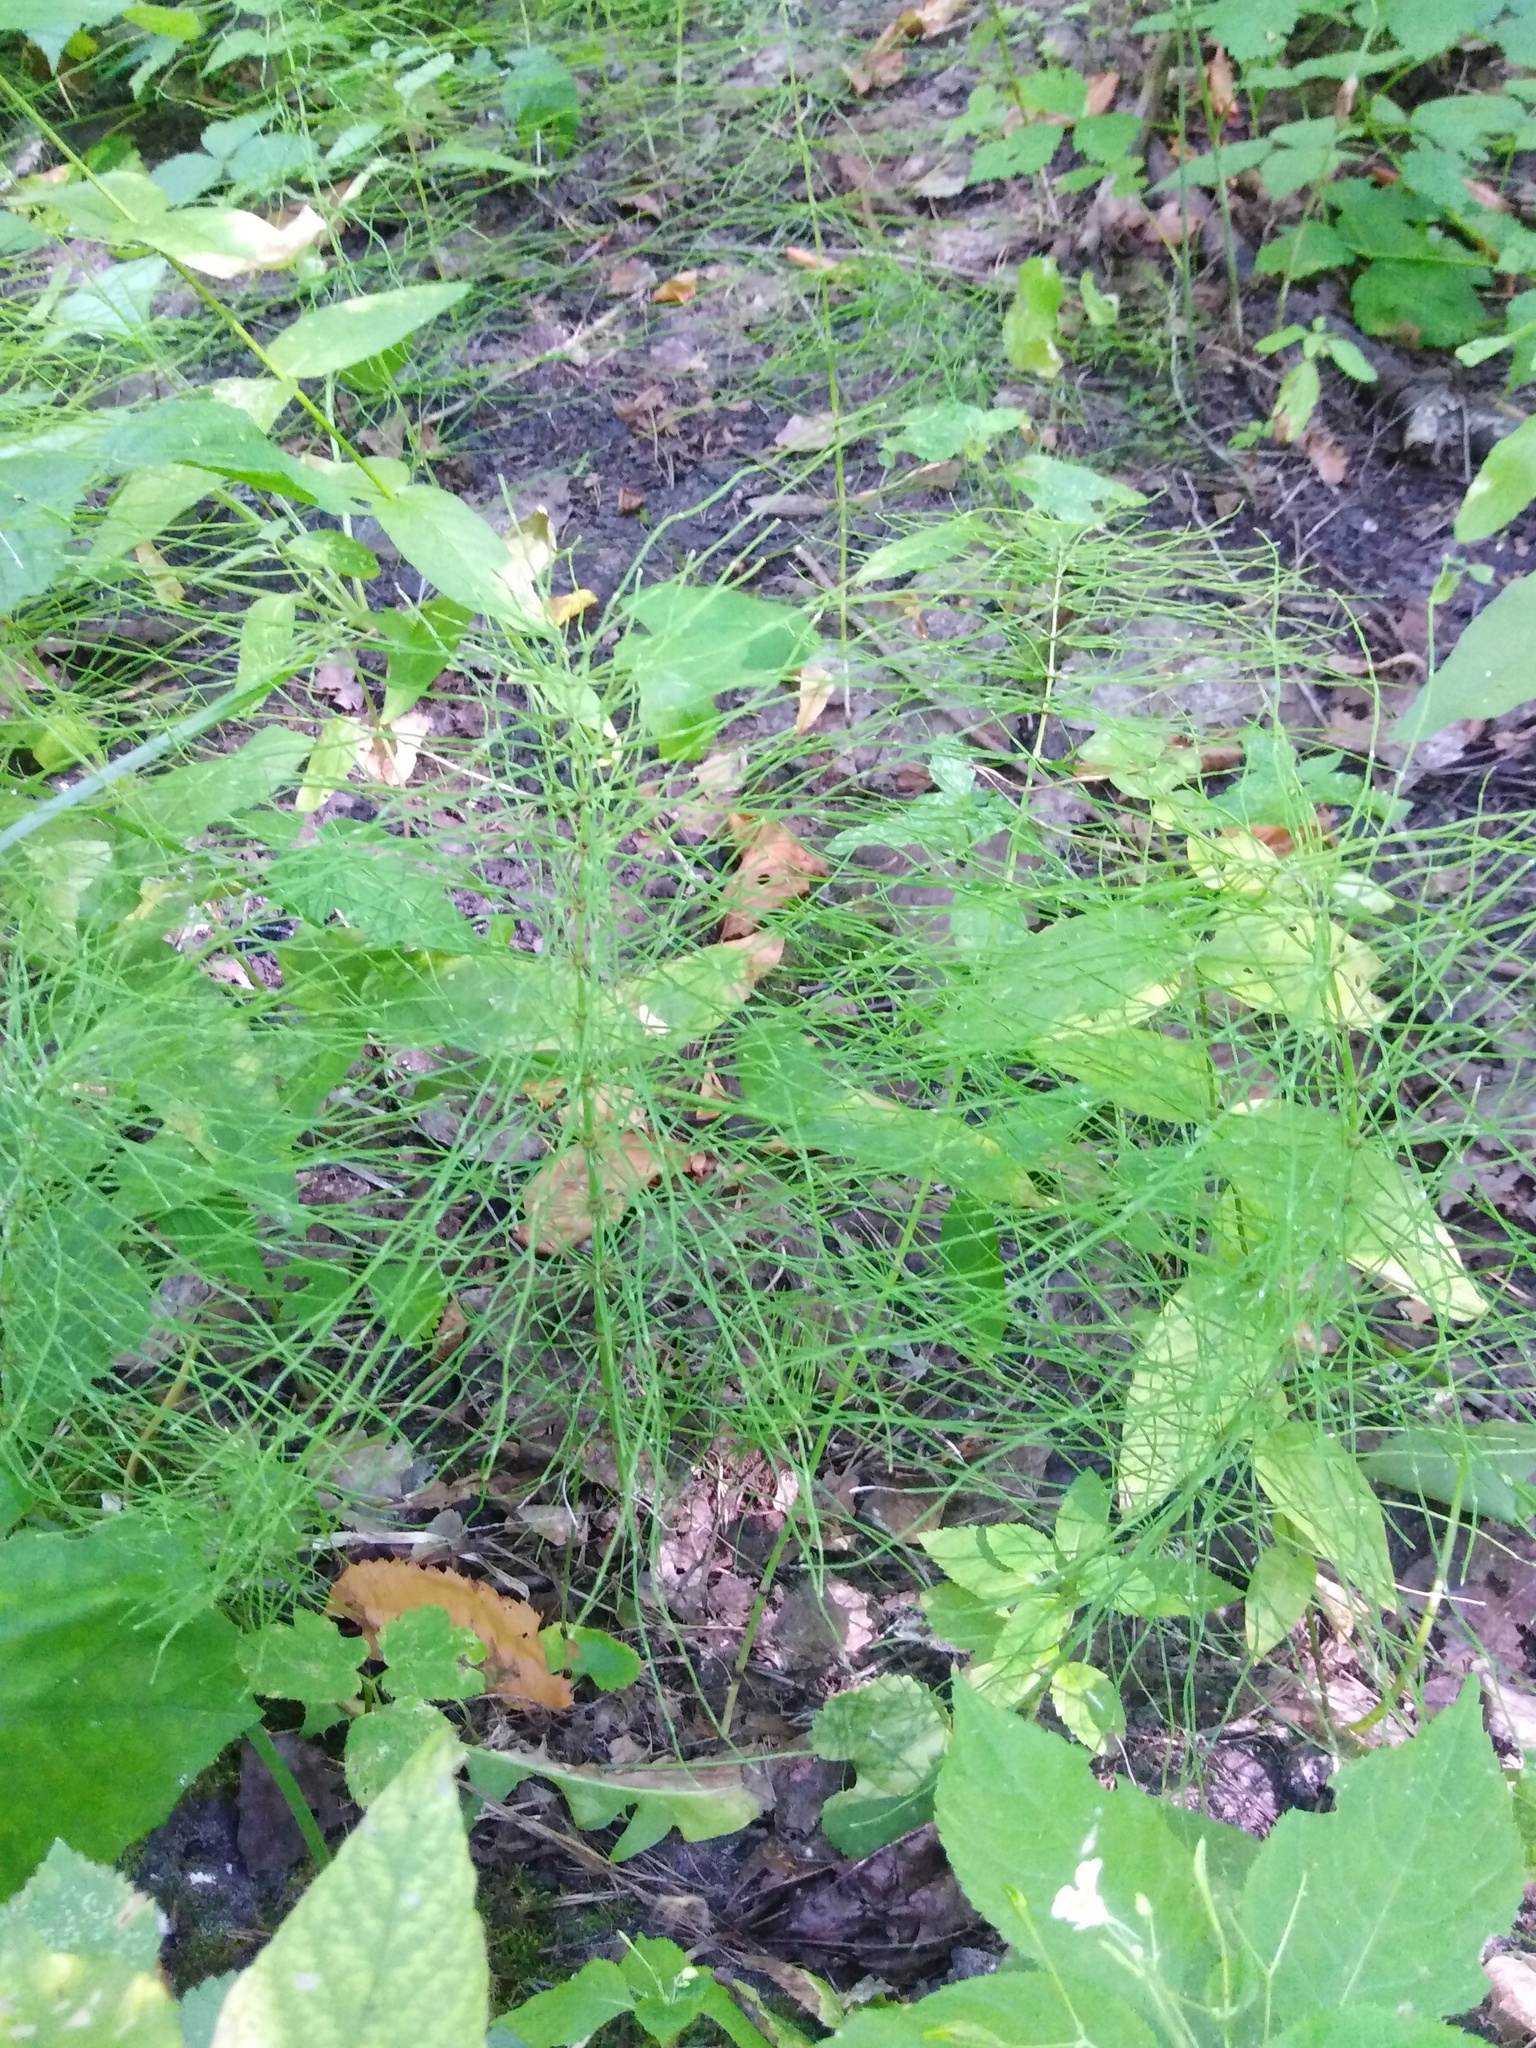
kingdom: Plantae
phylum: Tracheophyta
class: Polypodiopsida
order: Equisetales
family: Equisetaceae
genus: Equisetum
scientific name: Equisetum pratense
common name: Meadow horsetail
